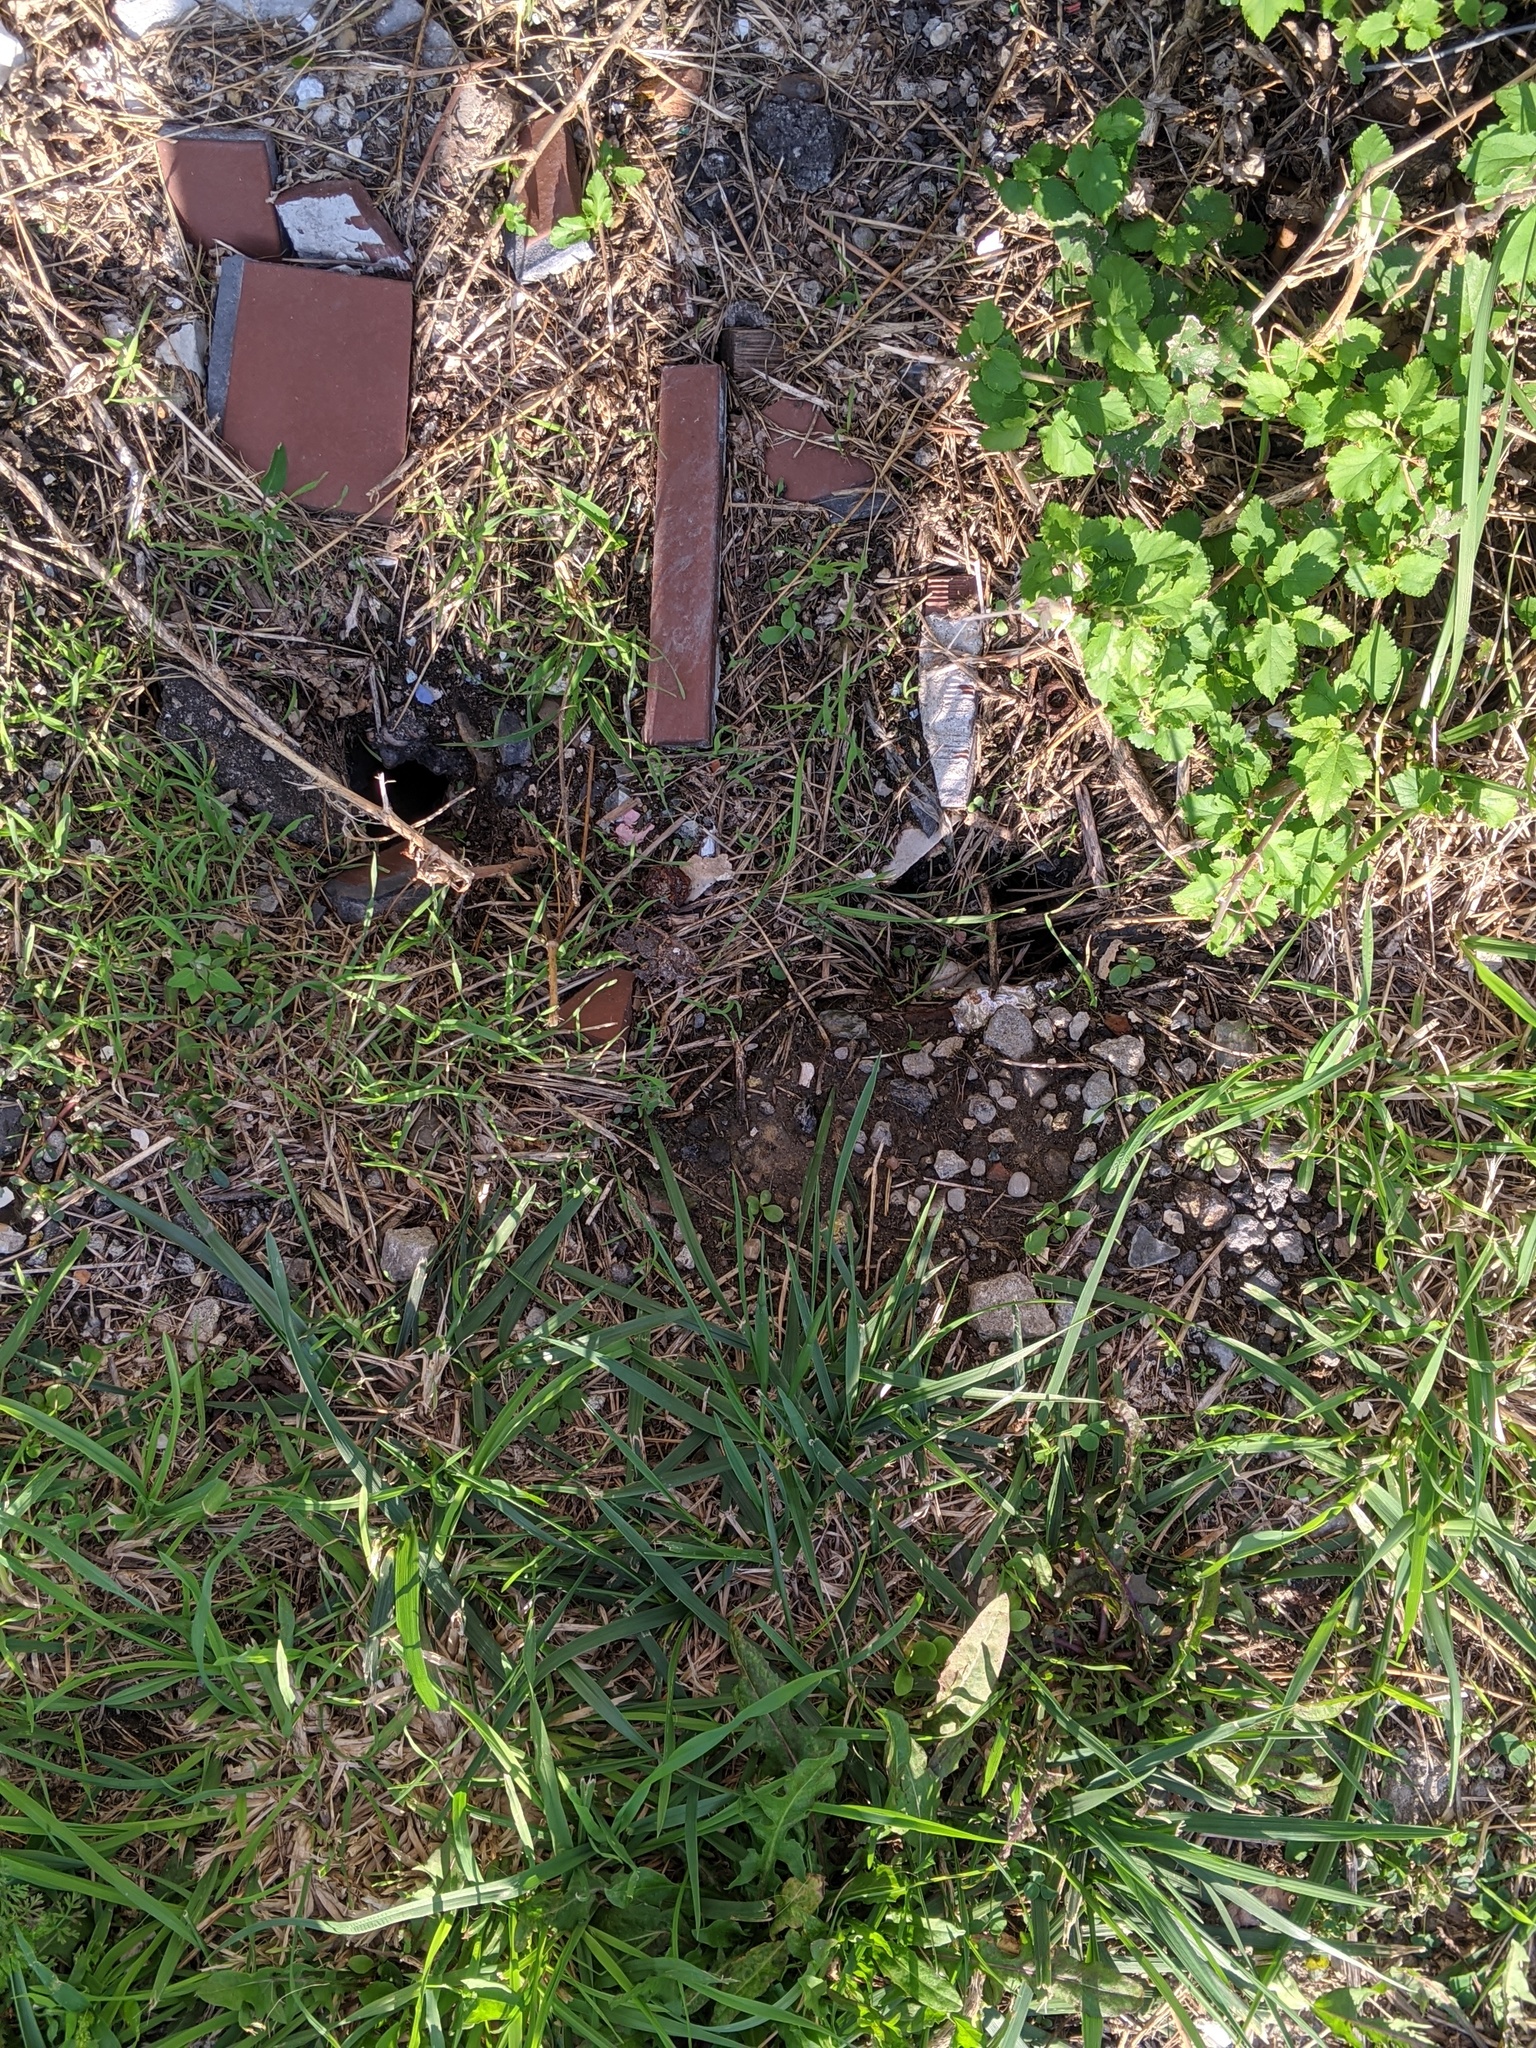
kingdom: Animalia
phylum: Chordata
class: Mammalia
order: Rodentia
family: Muridae
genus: Rattus
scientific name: Rattus norvegicus
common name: Brown rat
